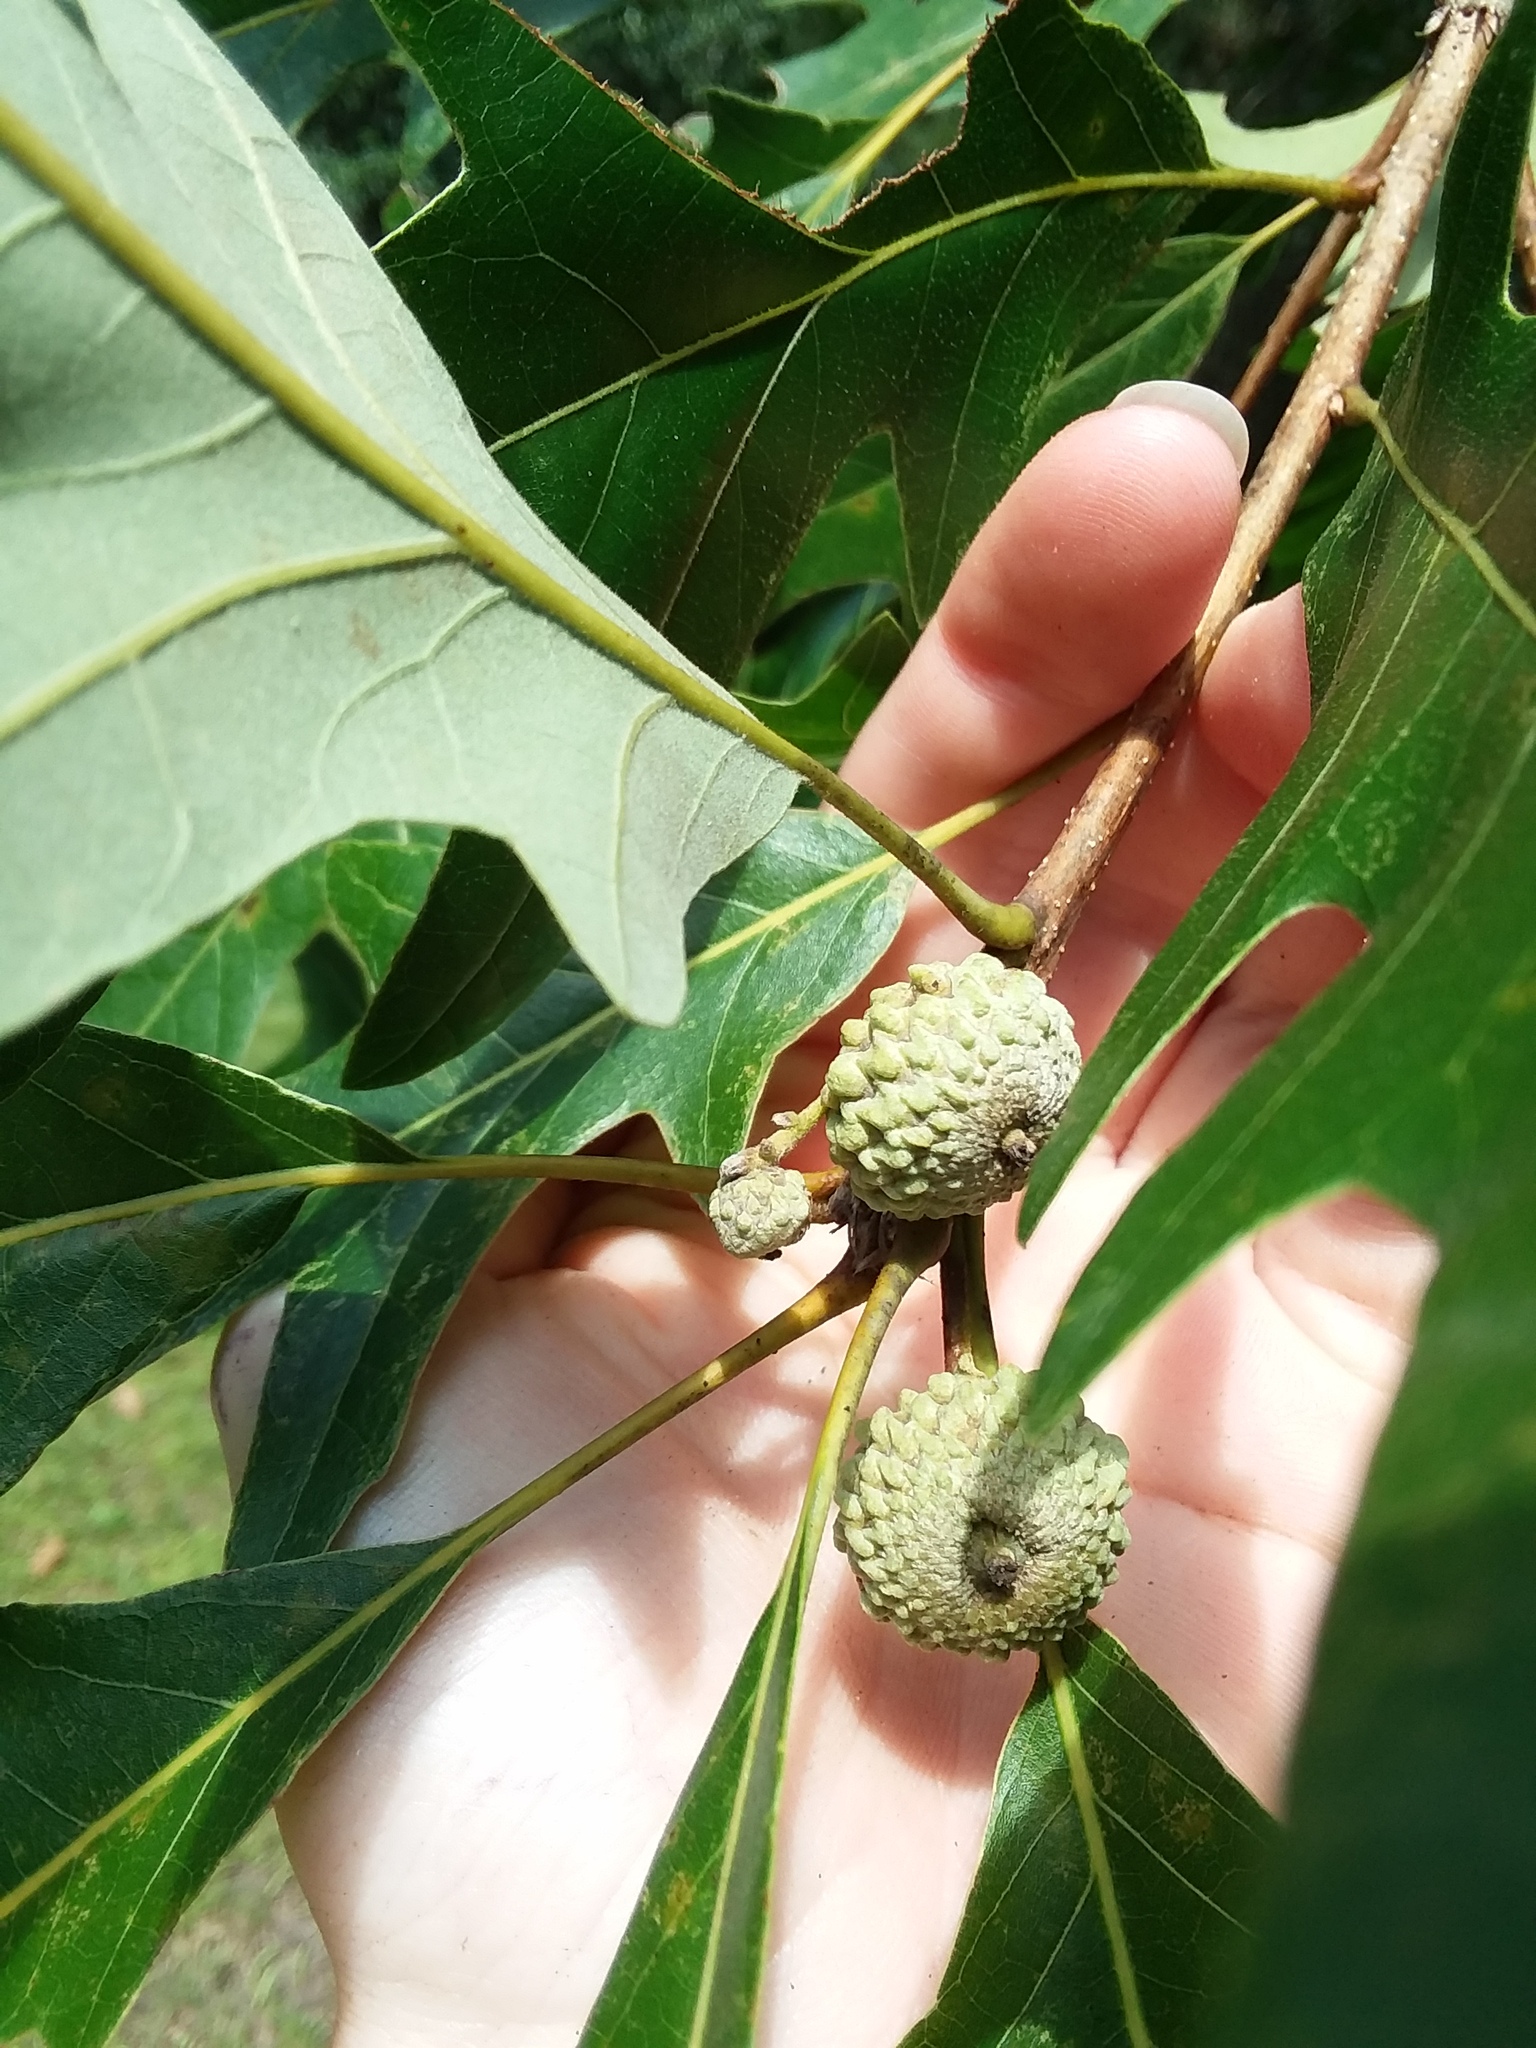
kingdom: Plantae
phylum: Tracheophyta
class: Magnoliopsida
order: Fagales
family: Fagaceae
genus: Quercus
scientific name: Quercus lyrata
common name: Overcup oak
